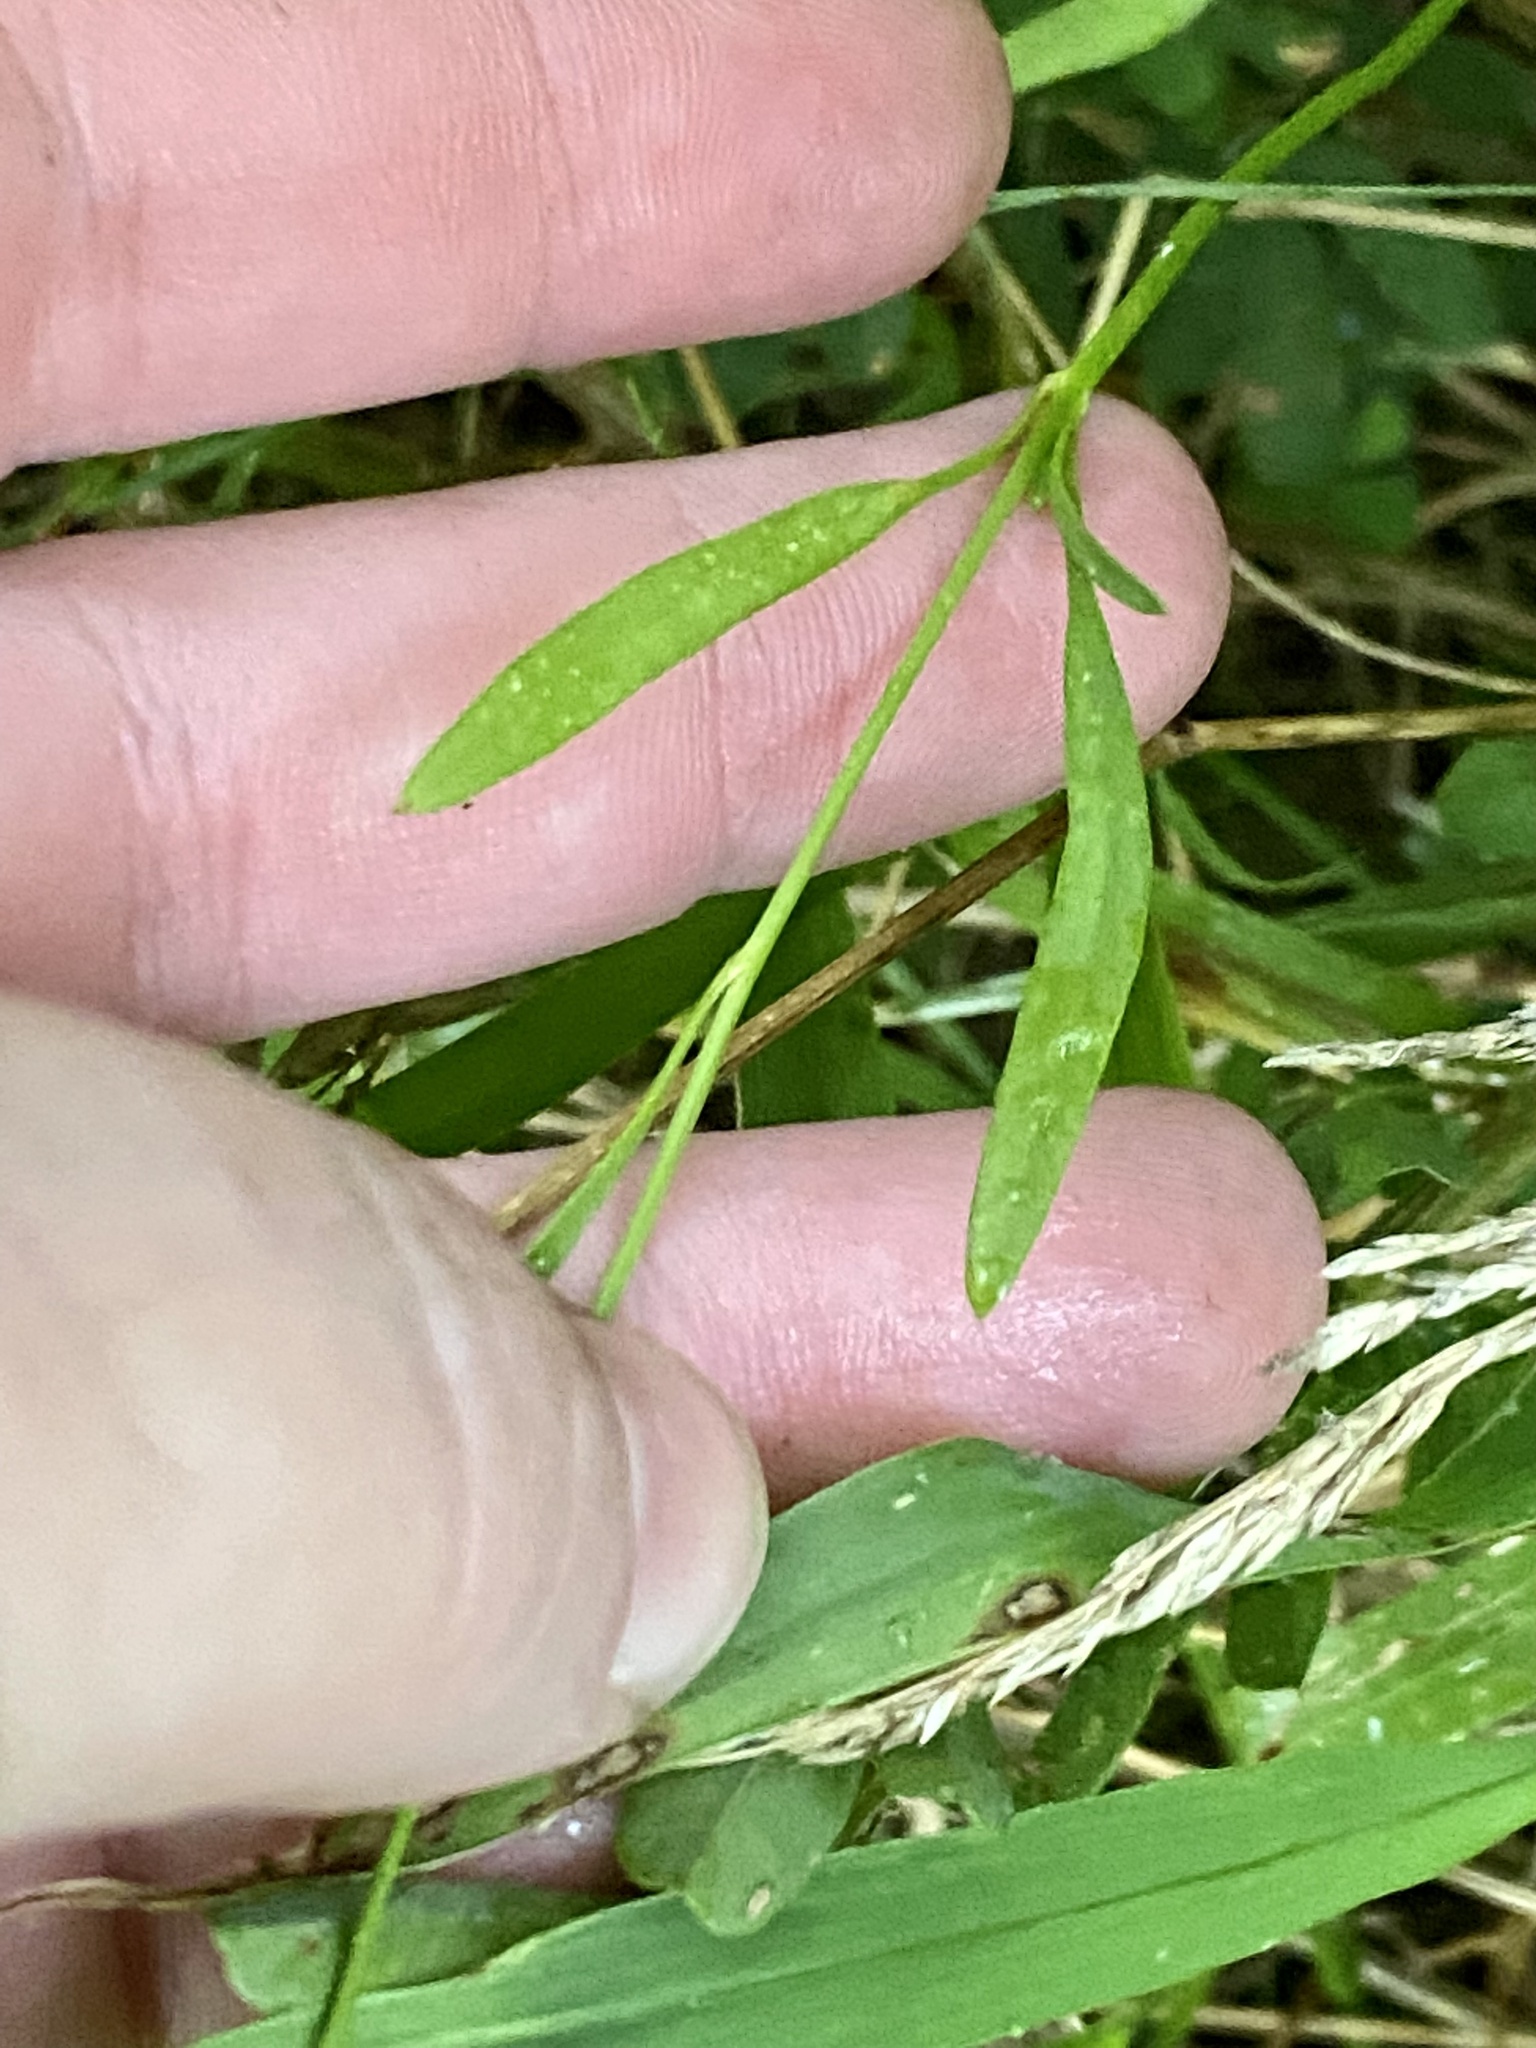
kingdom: Plantae
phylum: Tracheophyta
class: Magnoliopsida
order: Asterales
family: Asteraceae
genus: Coreopsis
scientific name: Coreopsis tinctoria
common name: Garden tickseed
